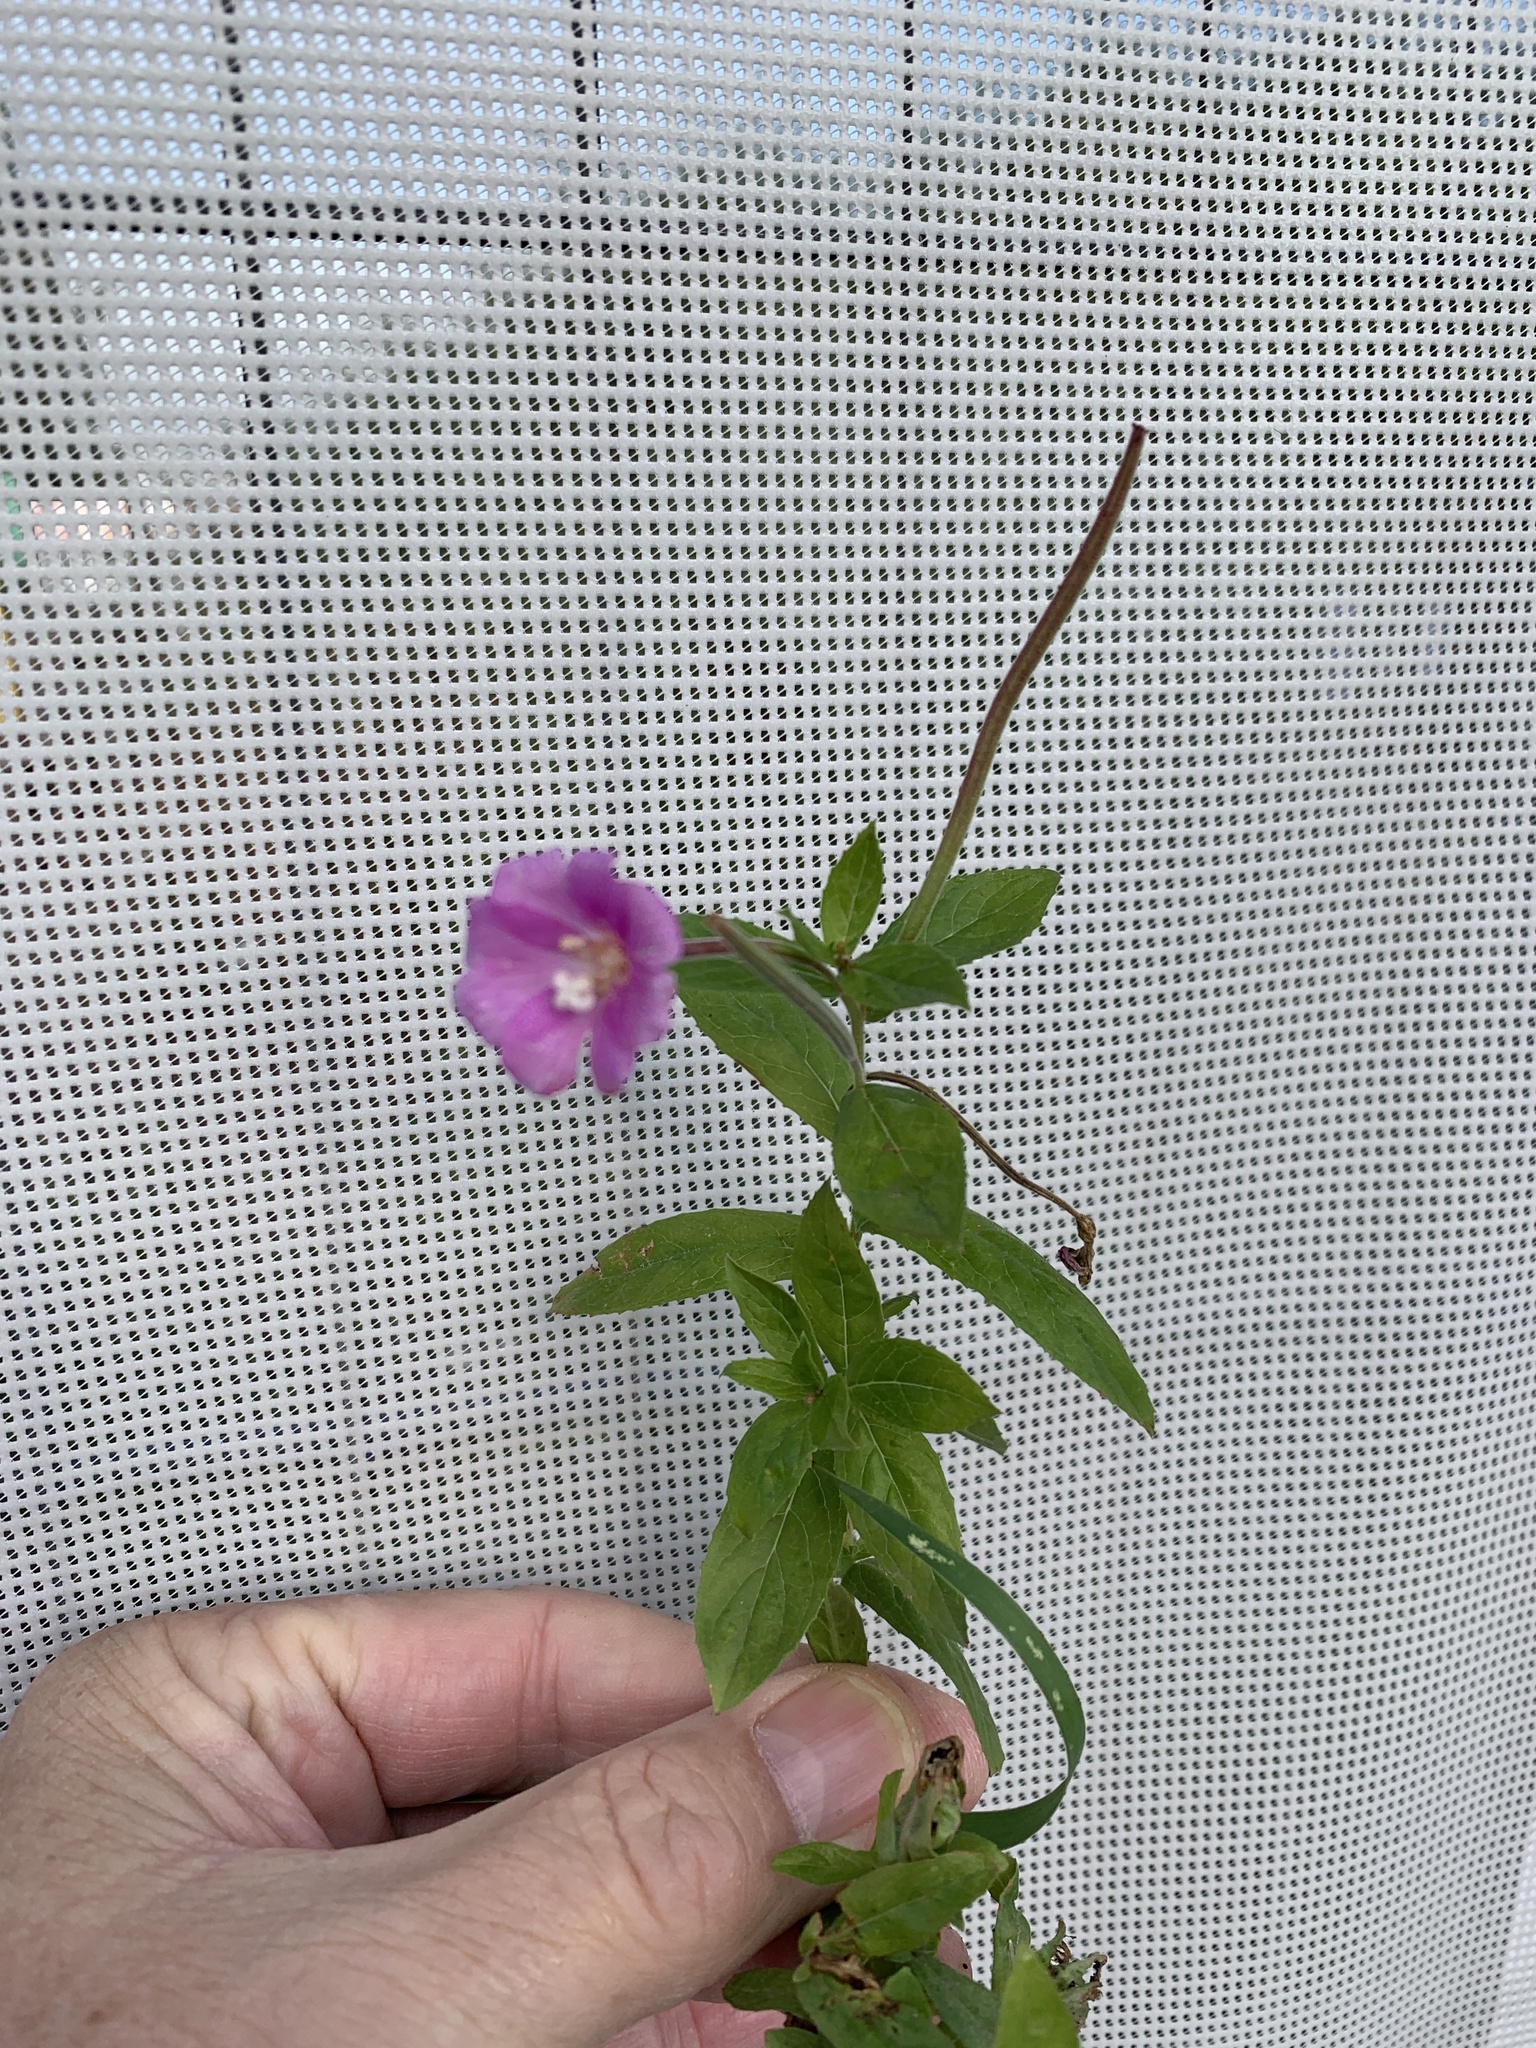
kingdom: Plantae
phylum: Tracheophyta
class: Magnoliopsida
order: Myrtales
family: Onagraceae
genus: Epilobium
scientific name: Epilobium hirsutum
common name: Great willowherb
